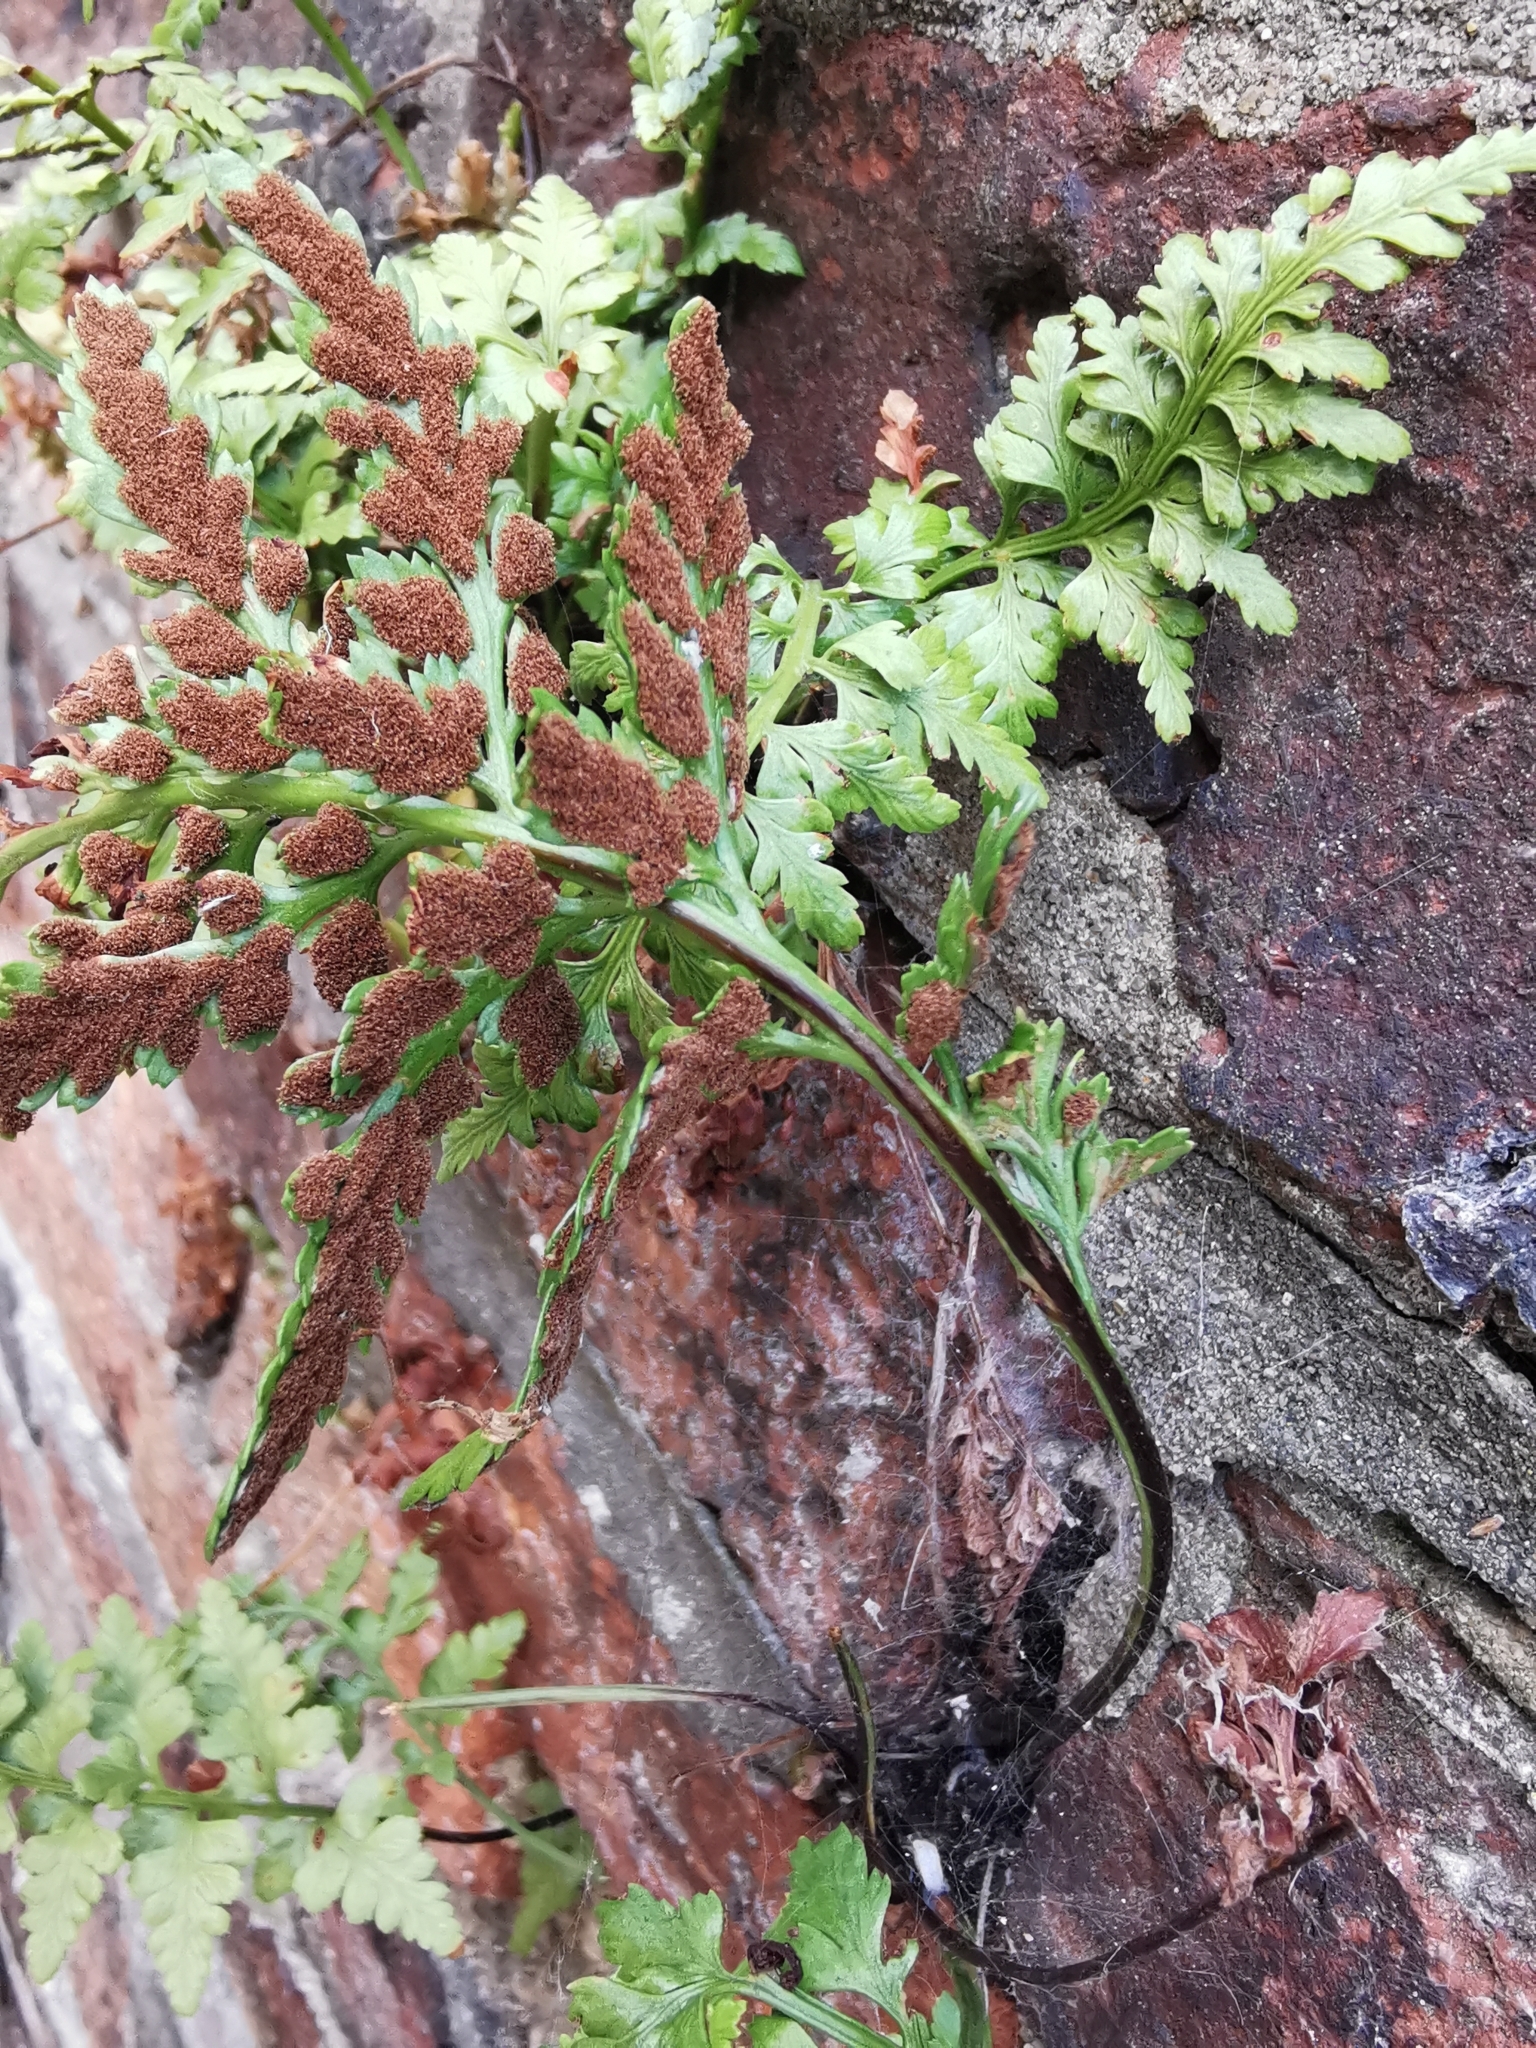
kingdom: Plantae
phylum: Tracheophyta
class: Polypodiopsida
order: Polypodiales
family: Aspleniaceae
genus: Asplenium
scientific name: Asplenium adiantum-nigrum
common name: Black spleenwort
